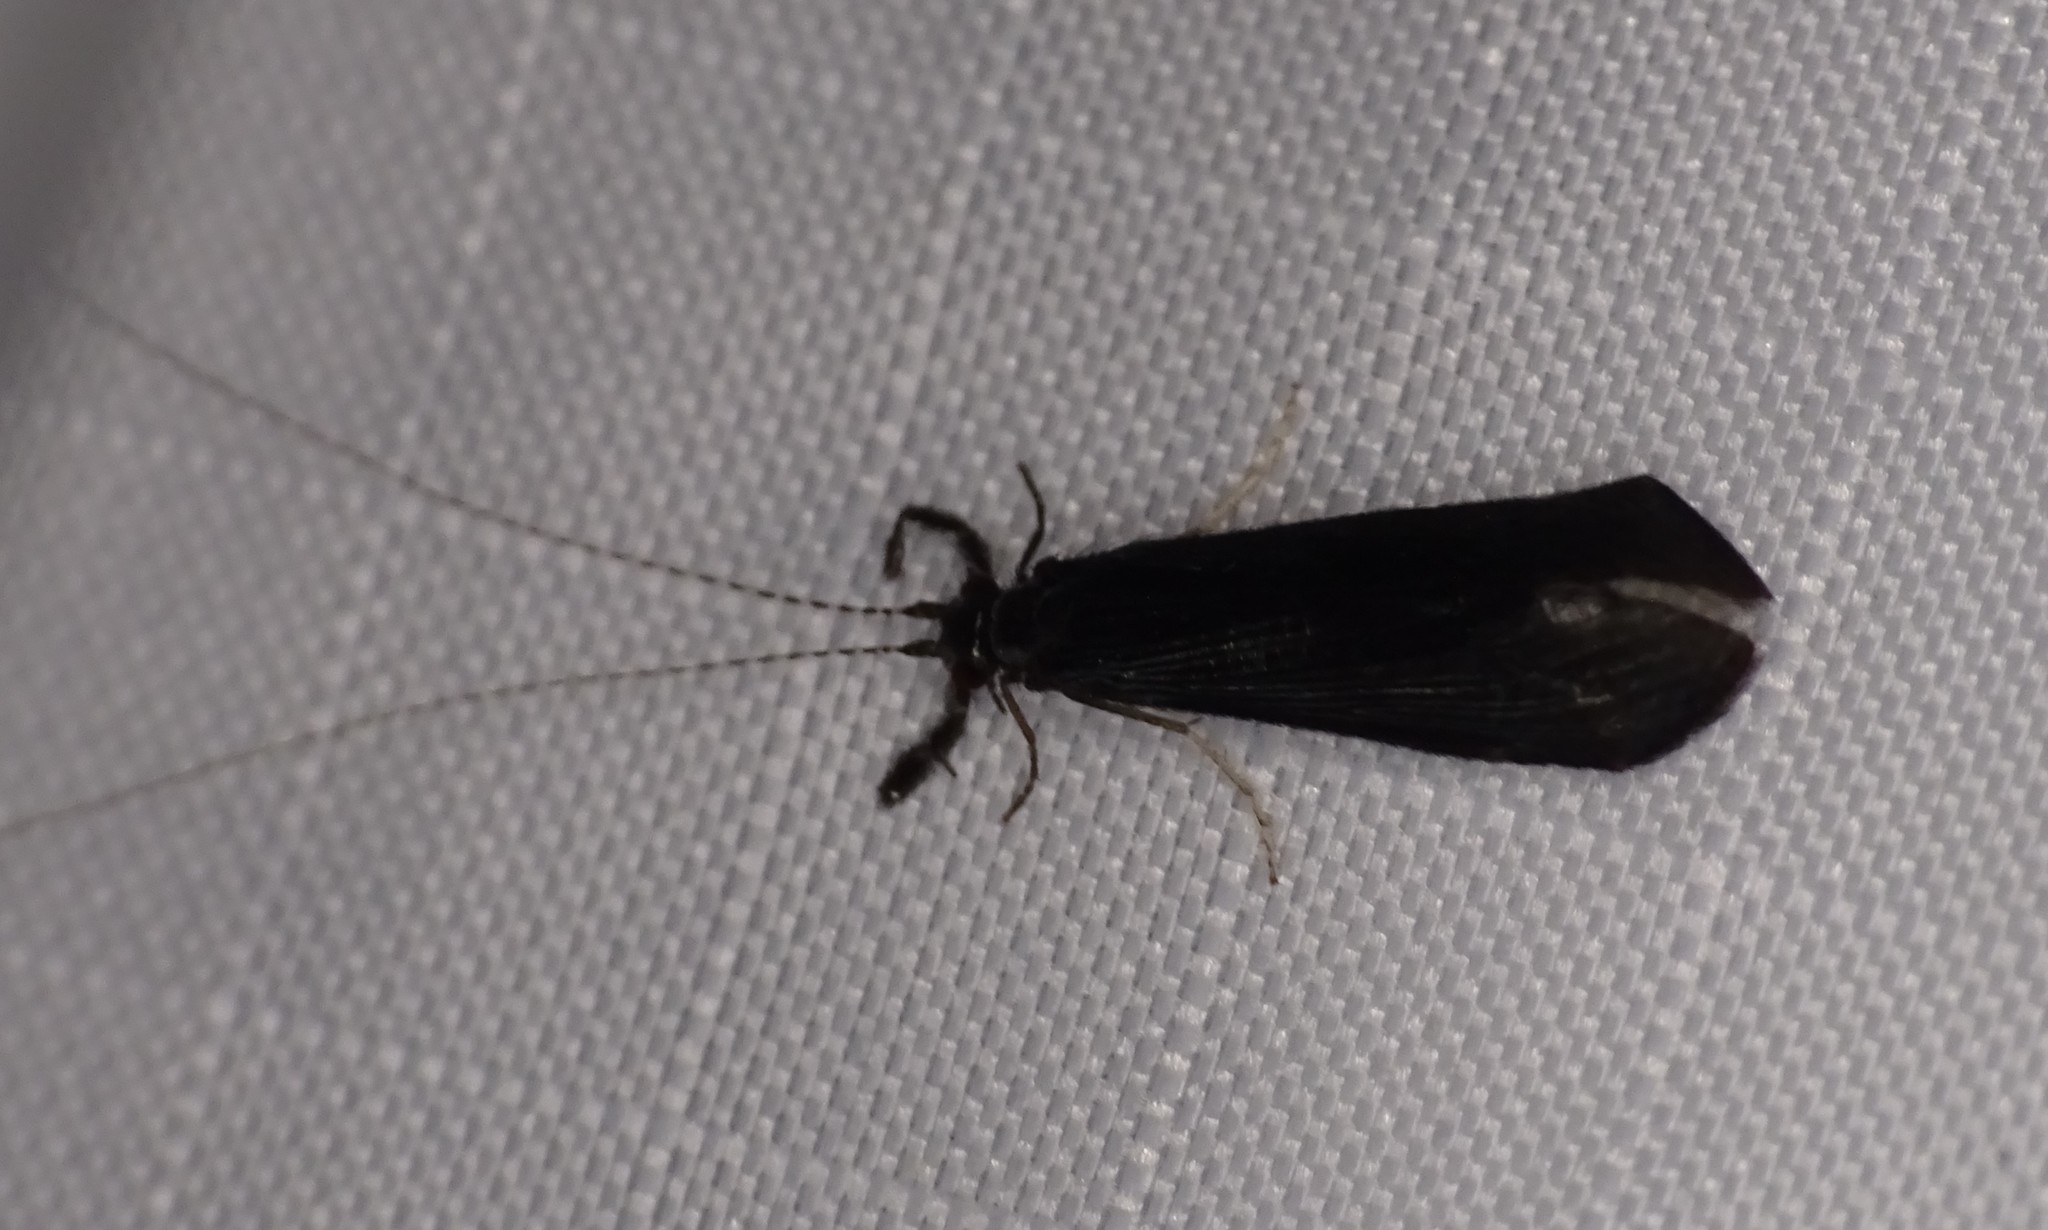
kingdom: Animalia
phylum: Arthropoda
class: Insecta
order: Trichoptera
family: Leptoceridae
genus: Mystacides
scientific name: Mystacides sepulchralis
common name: Black dancer caddisfly
